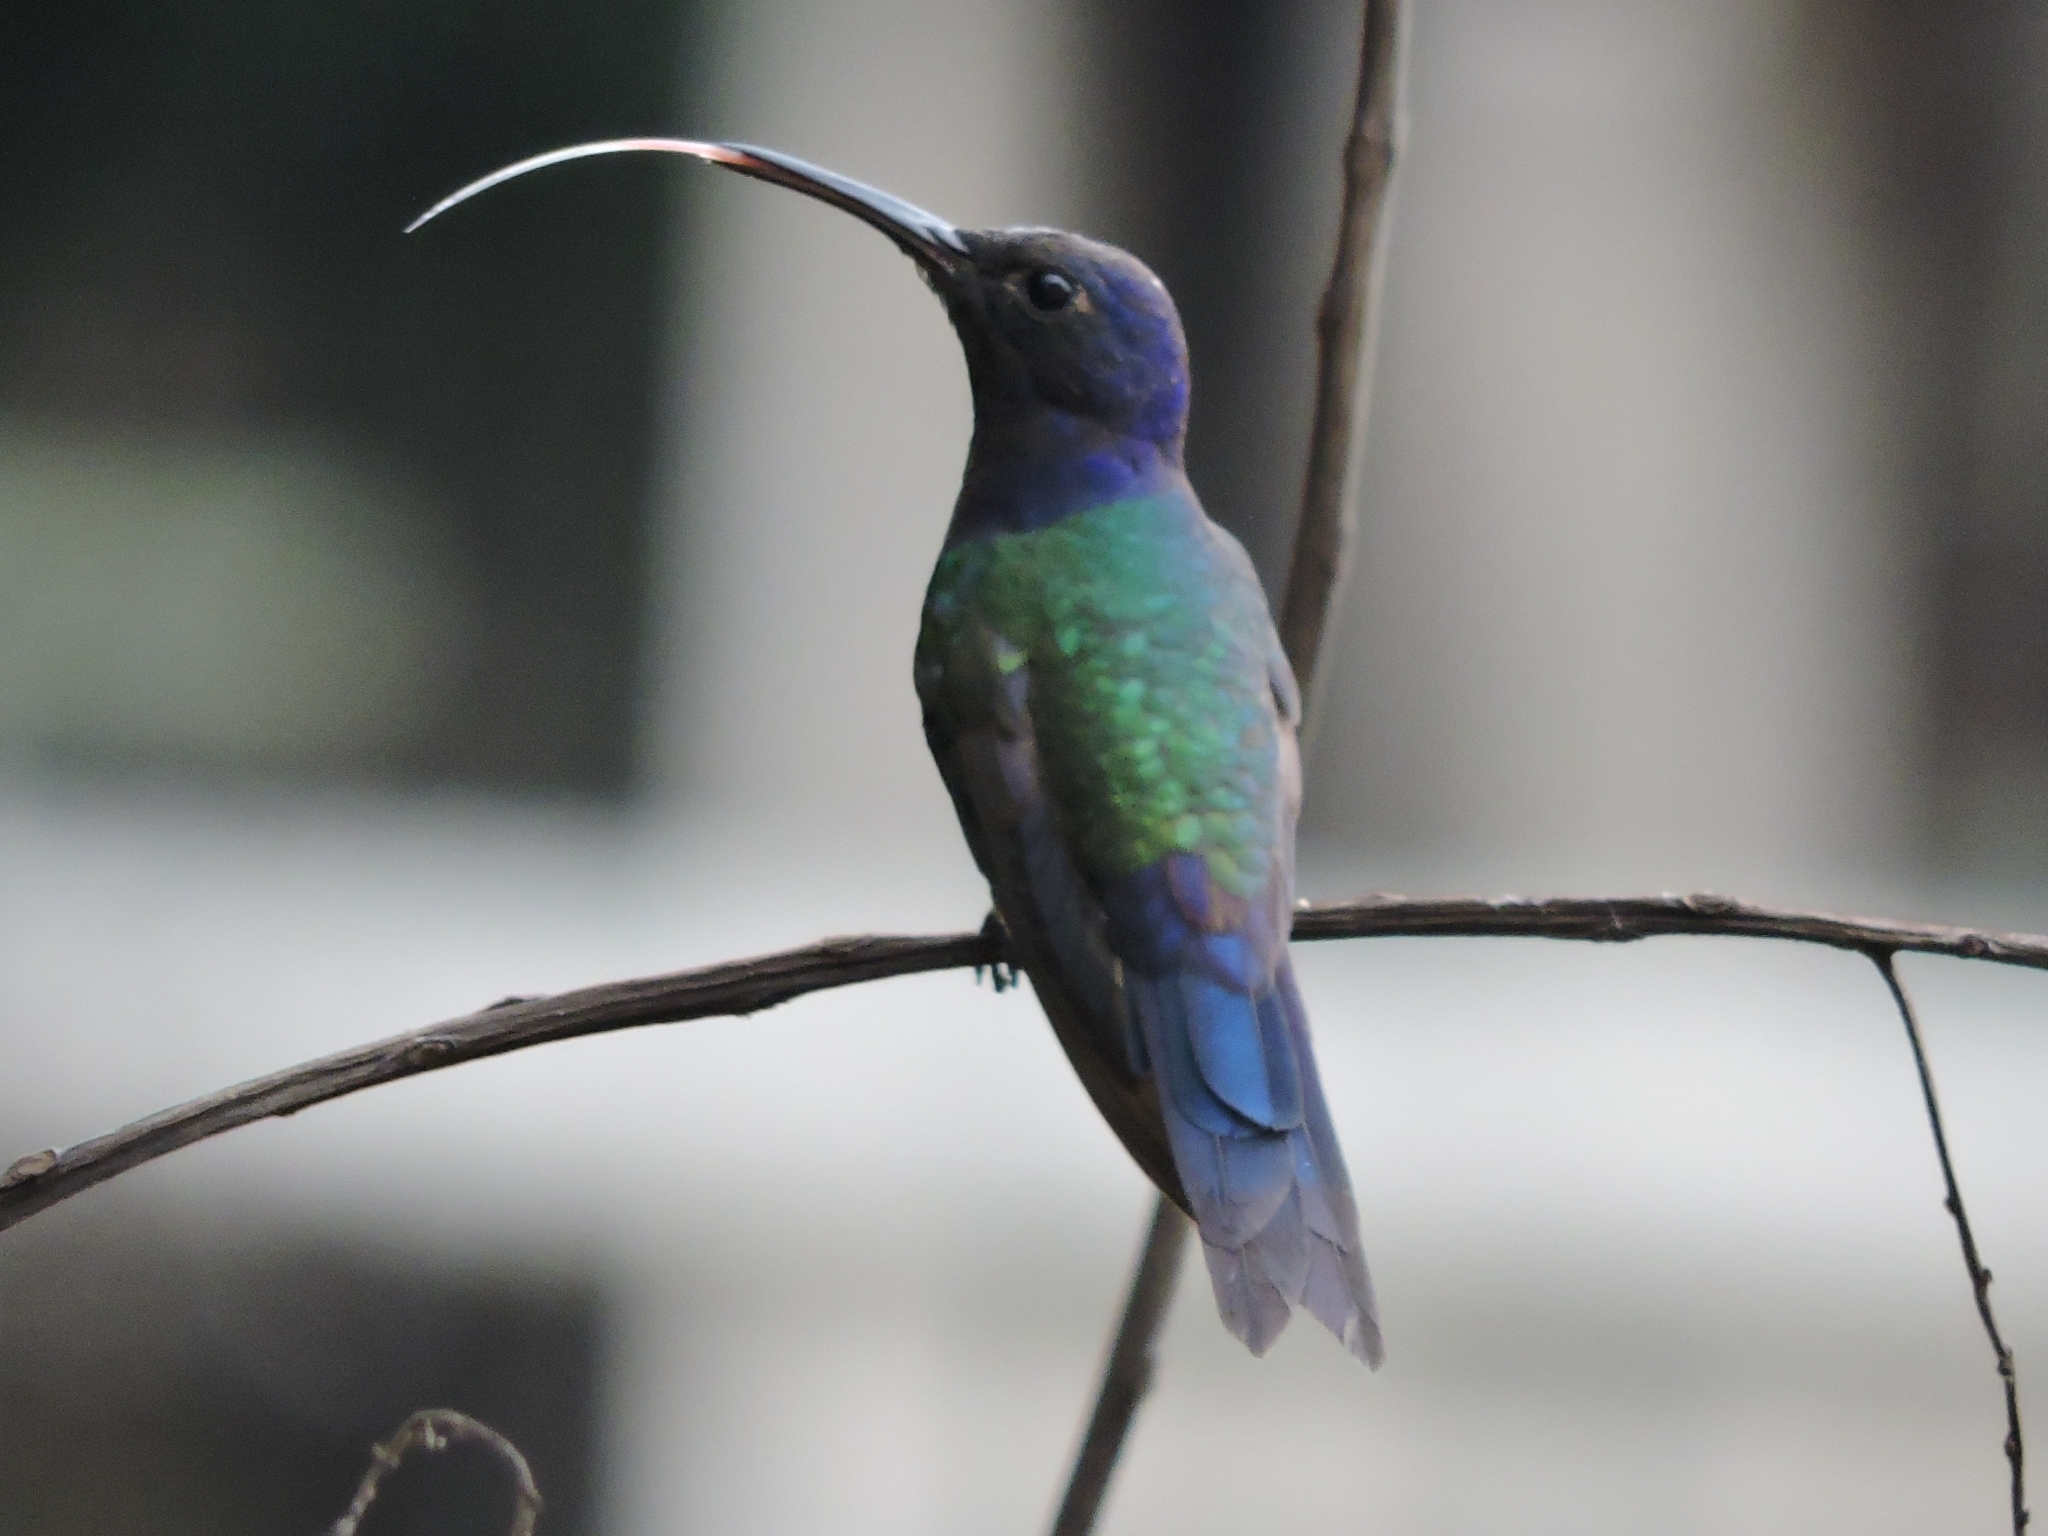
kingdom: Animalia
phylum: Chordata
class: Aves
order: Apodiformes
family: Trochilidae
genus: Eupetomena
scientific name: Eupetomena macroura
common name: Swallow-tailed hummingbird
